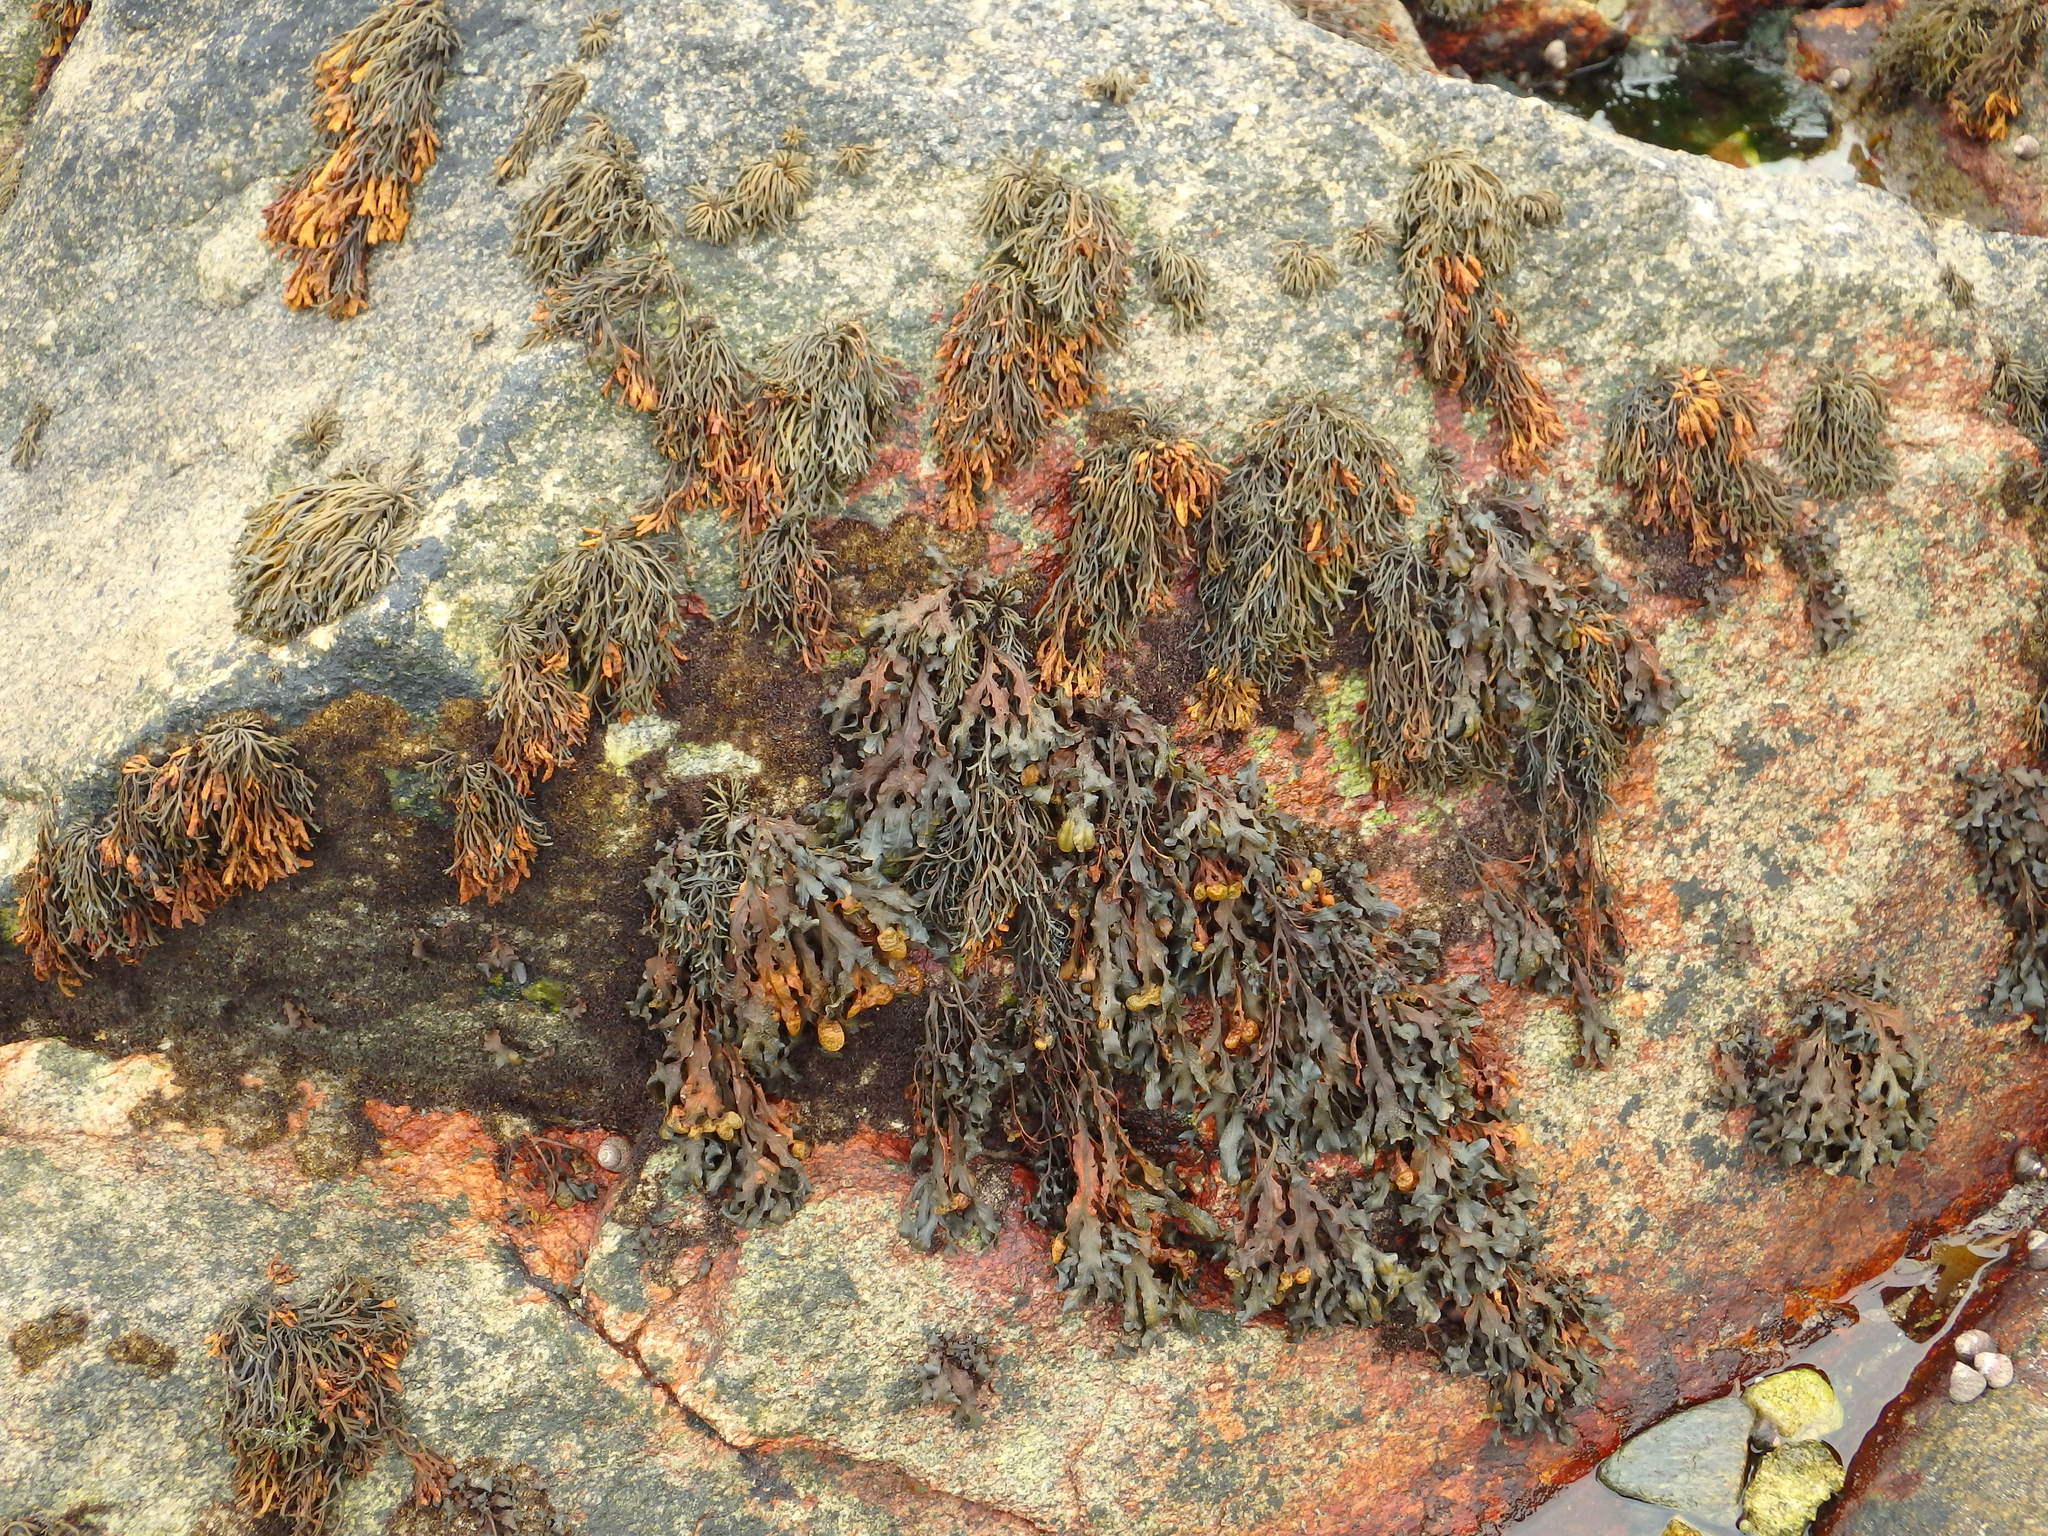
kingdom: Chromista
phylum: Ochrophyta
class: Phaeophyceae
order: Fucales
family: Fucaceae
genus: Fucus
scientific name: Fucus spiralis
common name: Spiral wrack
